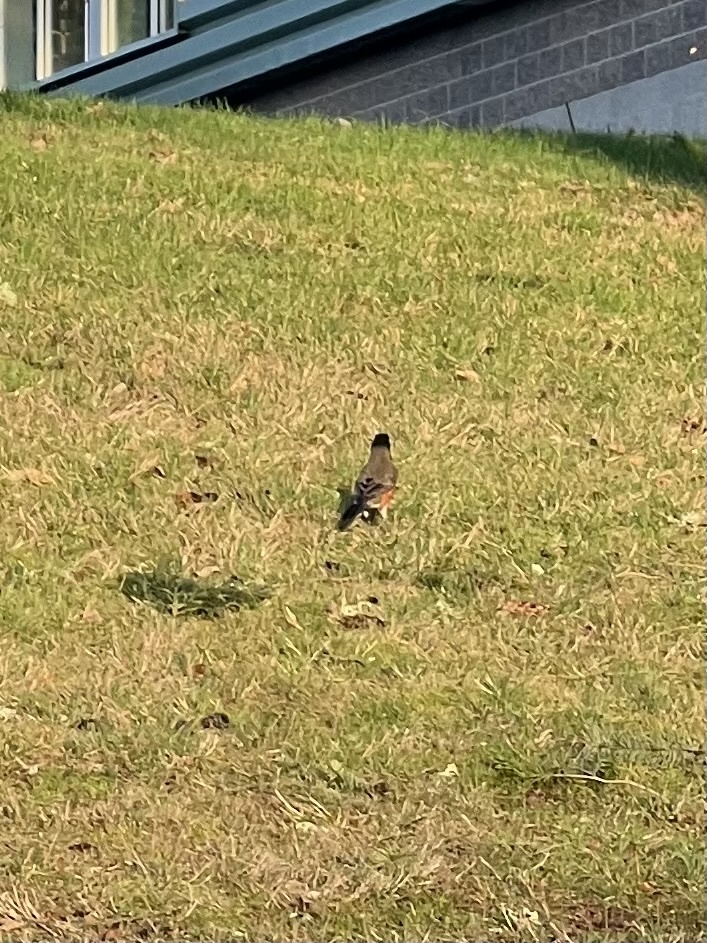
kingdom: Animalia
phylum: Chordata
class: Aves
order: Passeriformes
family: Turdidae
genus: Turdus
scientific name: Turdus migratorius
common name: American robin
